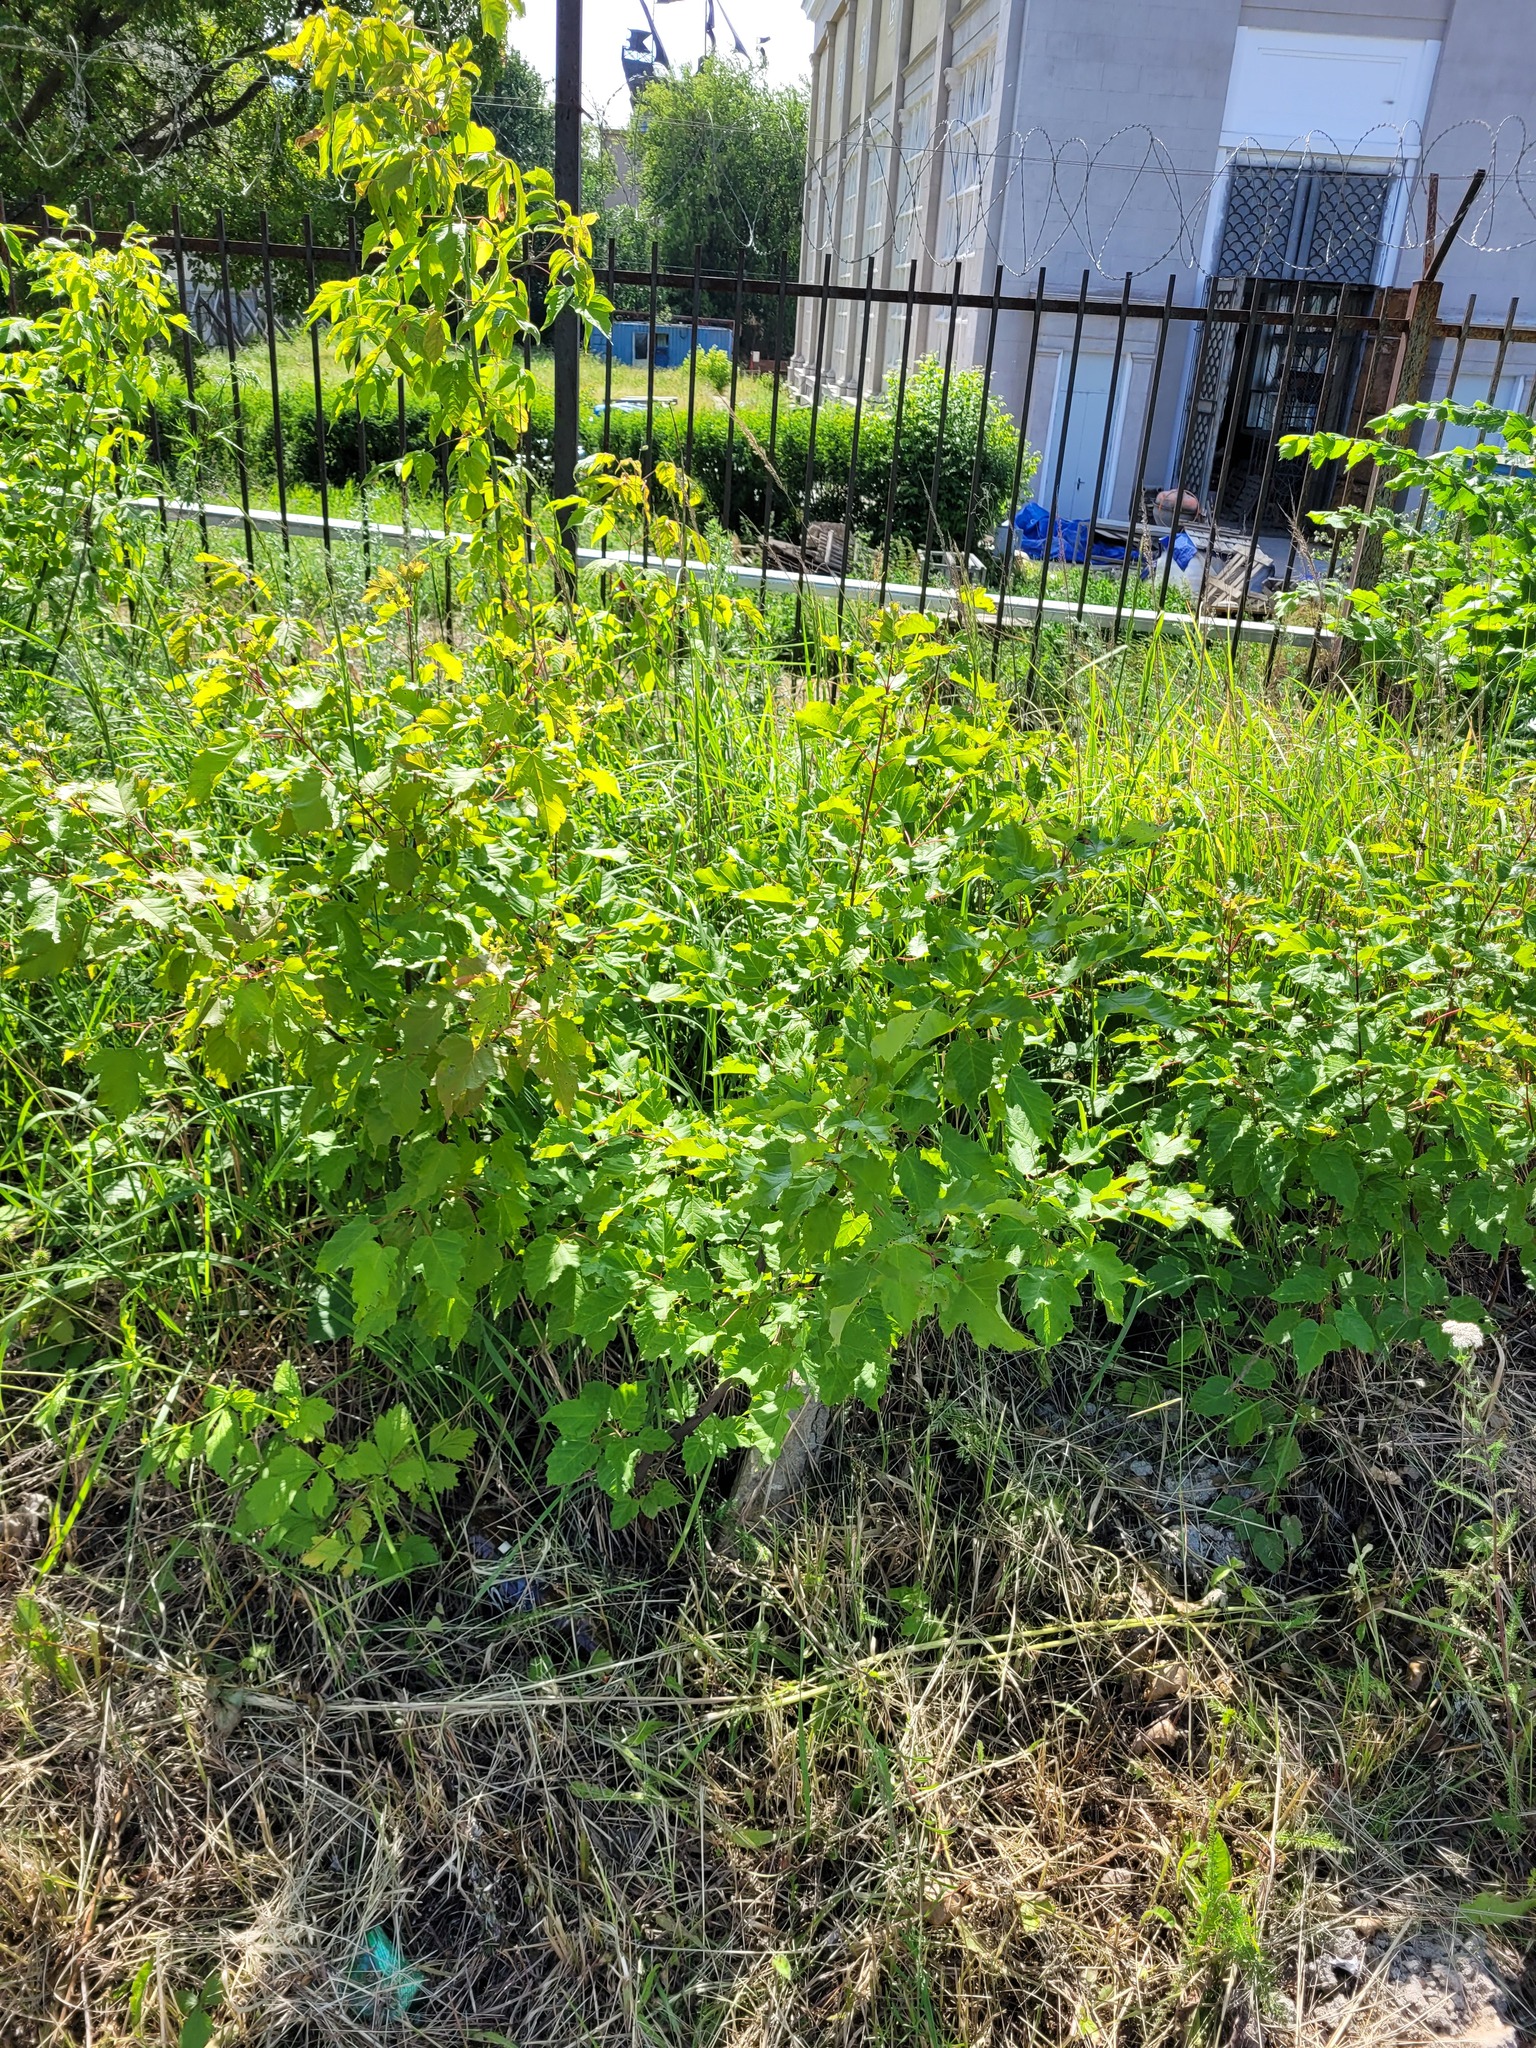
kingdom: Plantae
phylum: Tracheophyta
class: Magnoliopsida
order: Sapindales
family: Sapindaceae
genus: Acer
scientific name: Acer tataricum
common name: Tartar maple
